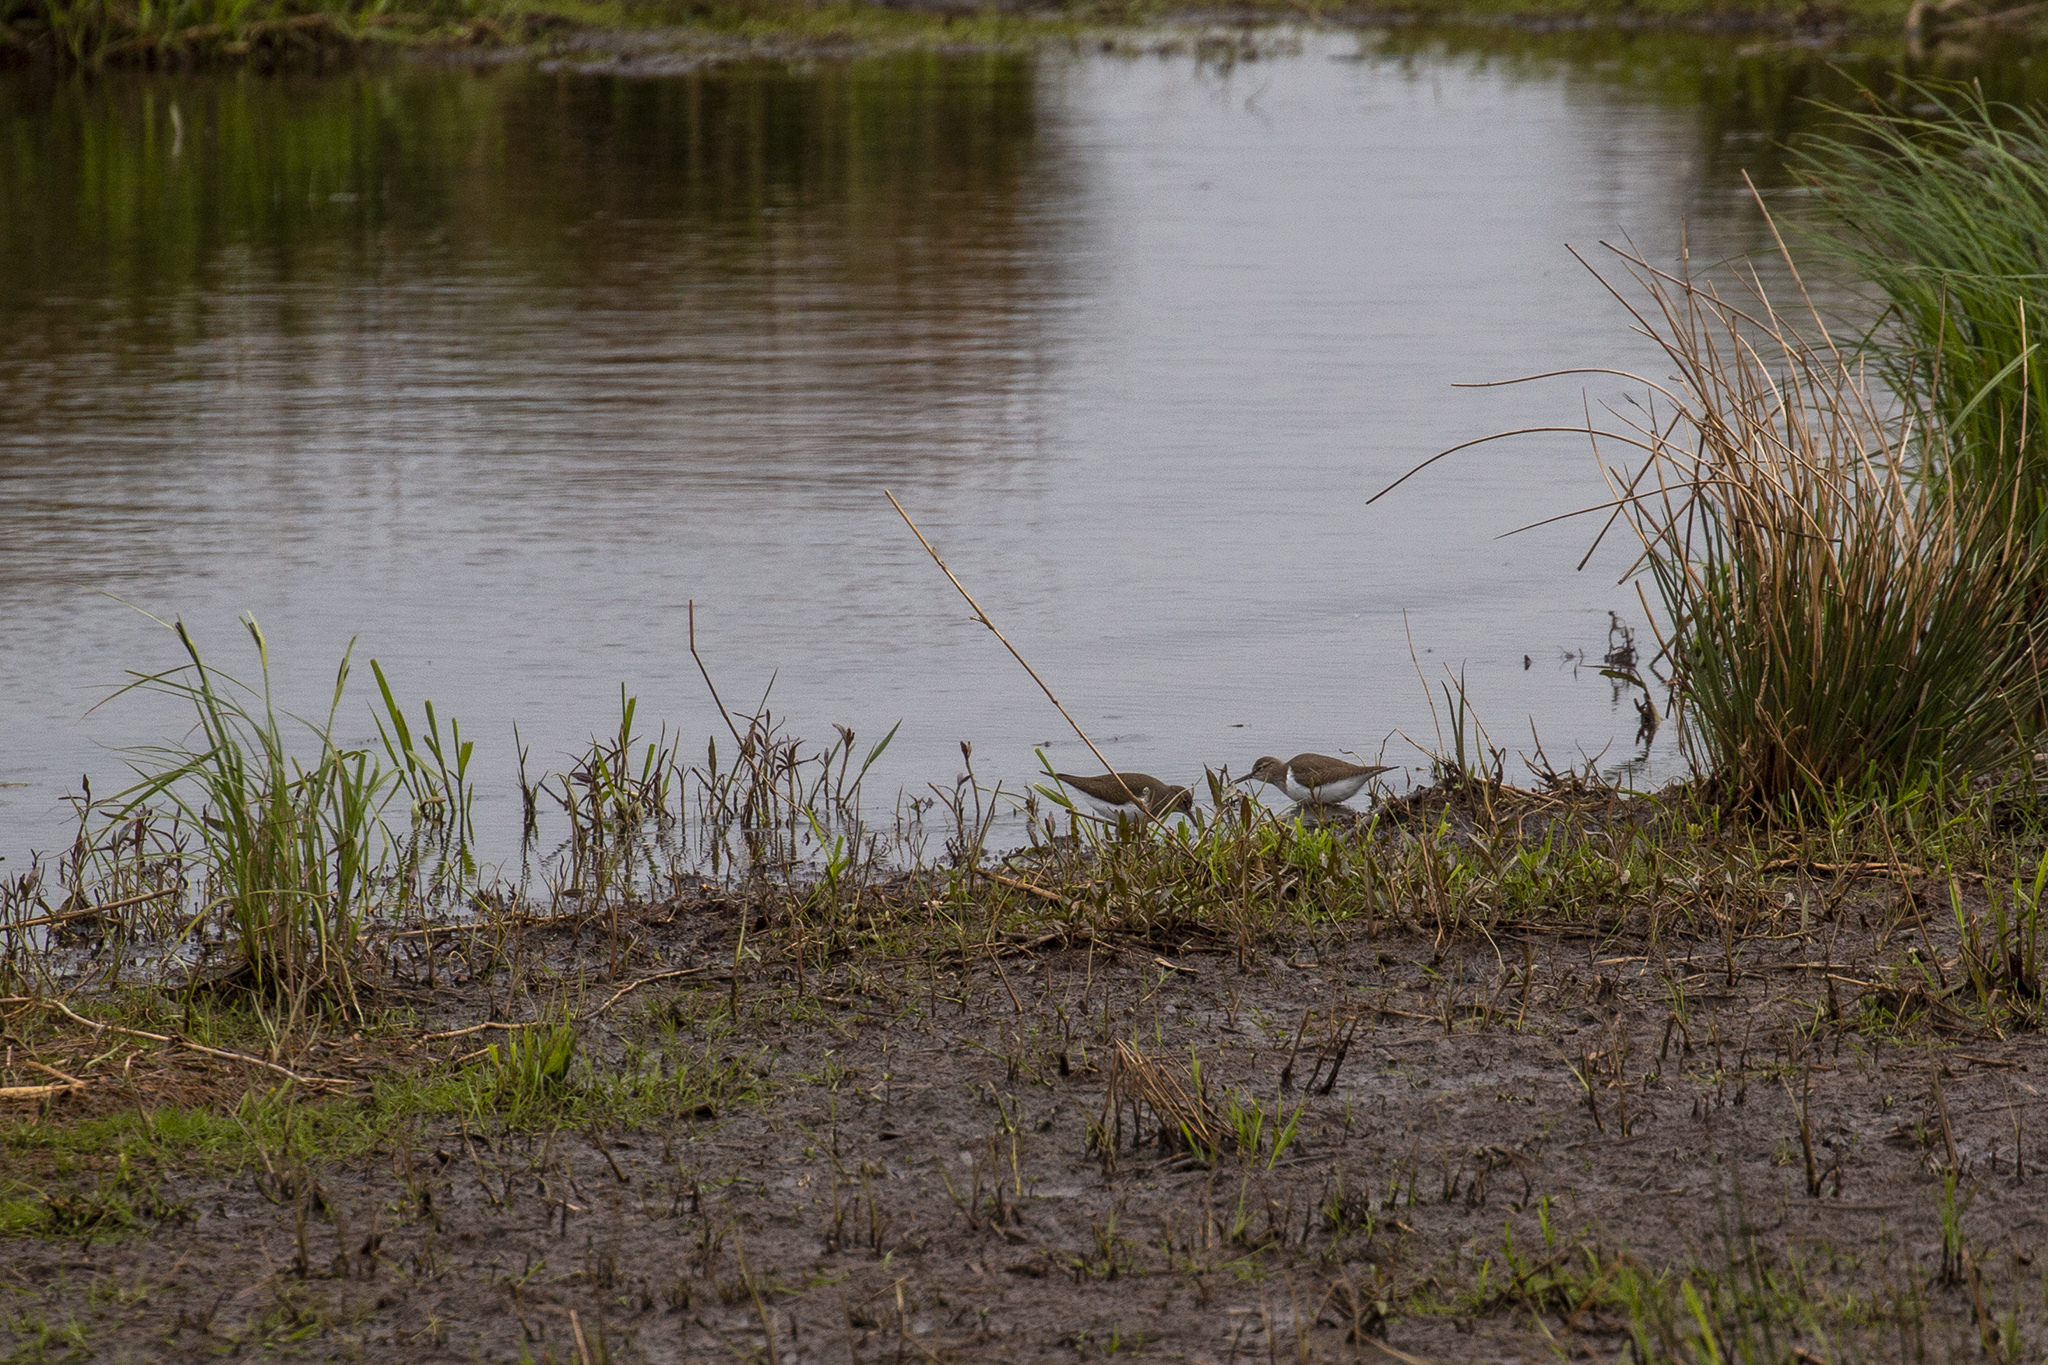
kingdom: Animalia
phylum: Chordata
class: Aves
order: Charadriiformes
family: Scolopacidae
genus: Actitis
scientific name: Actitis hypoleucos
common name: Common sandpiper
